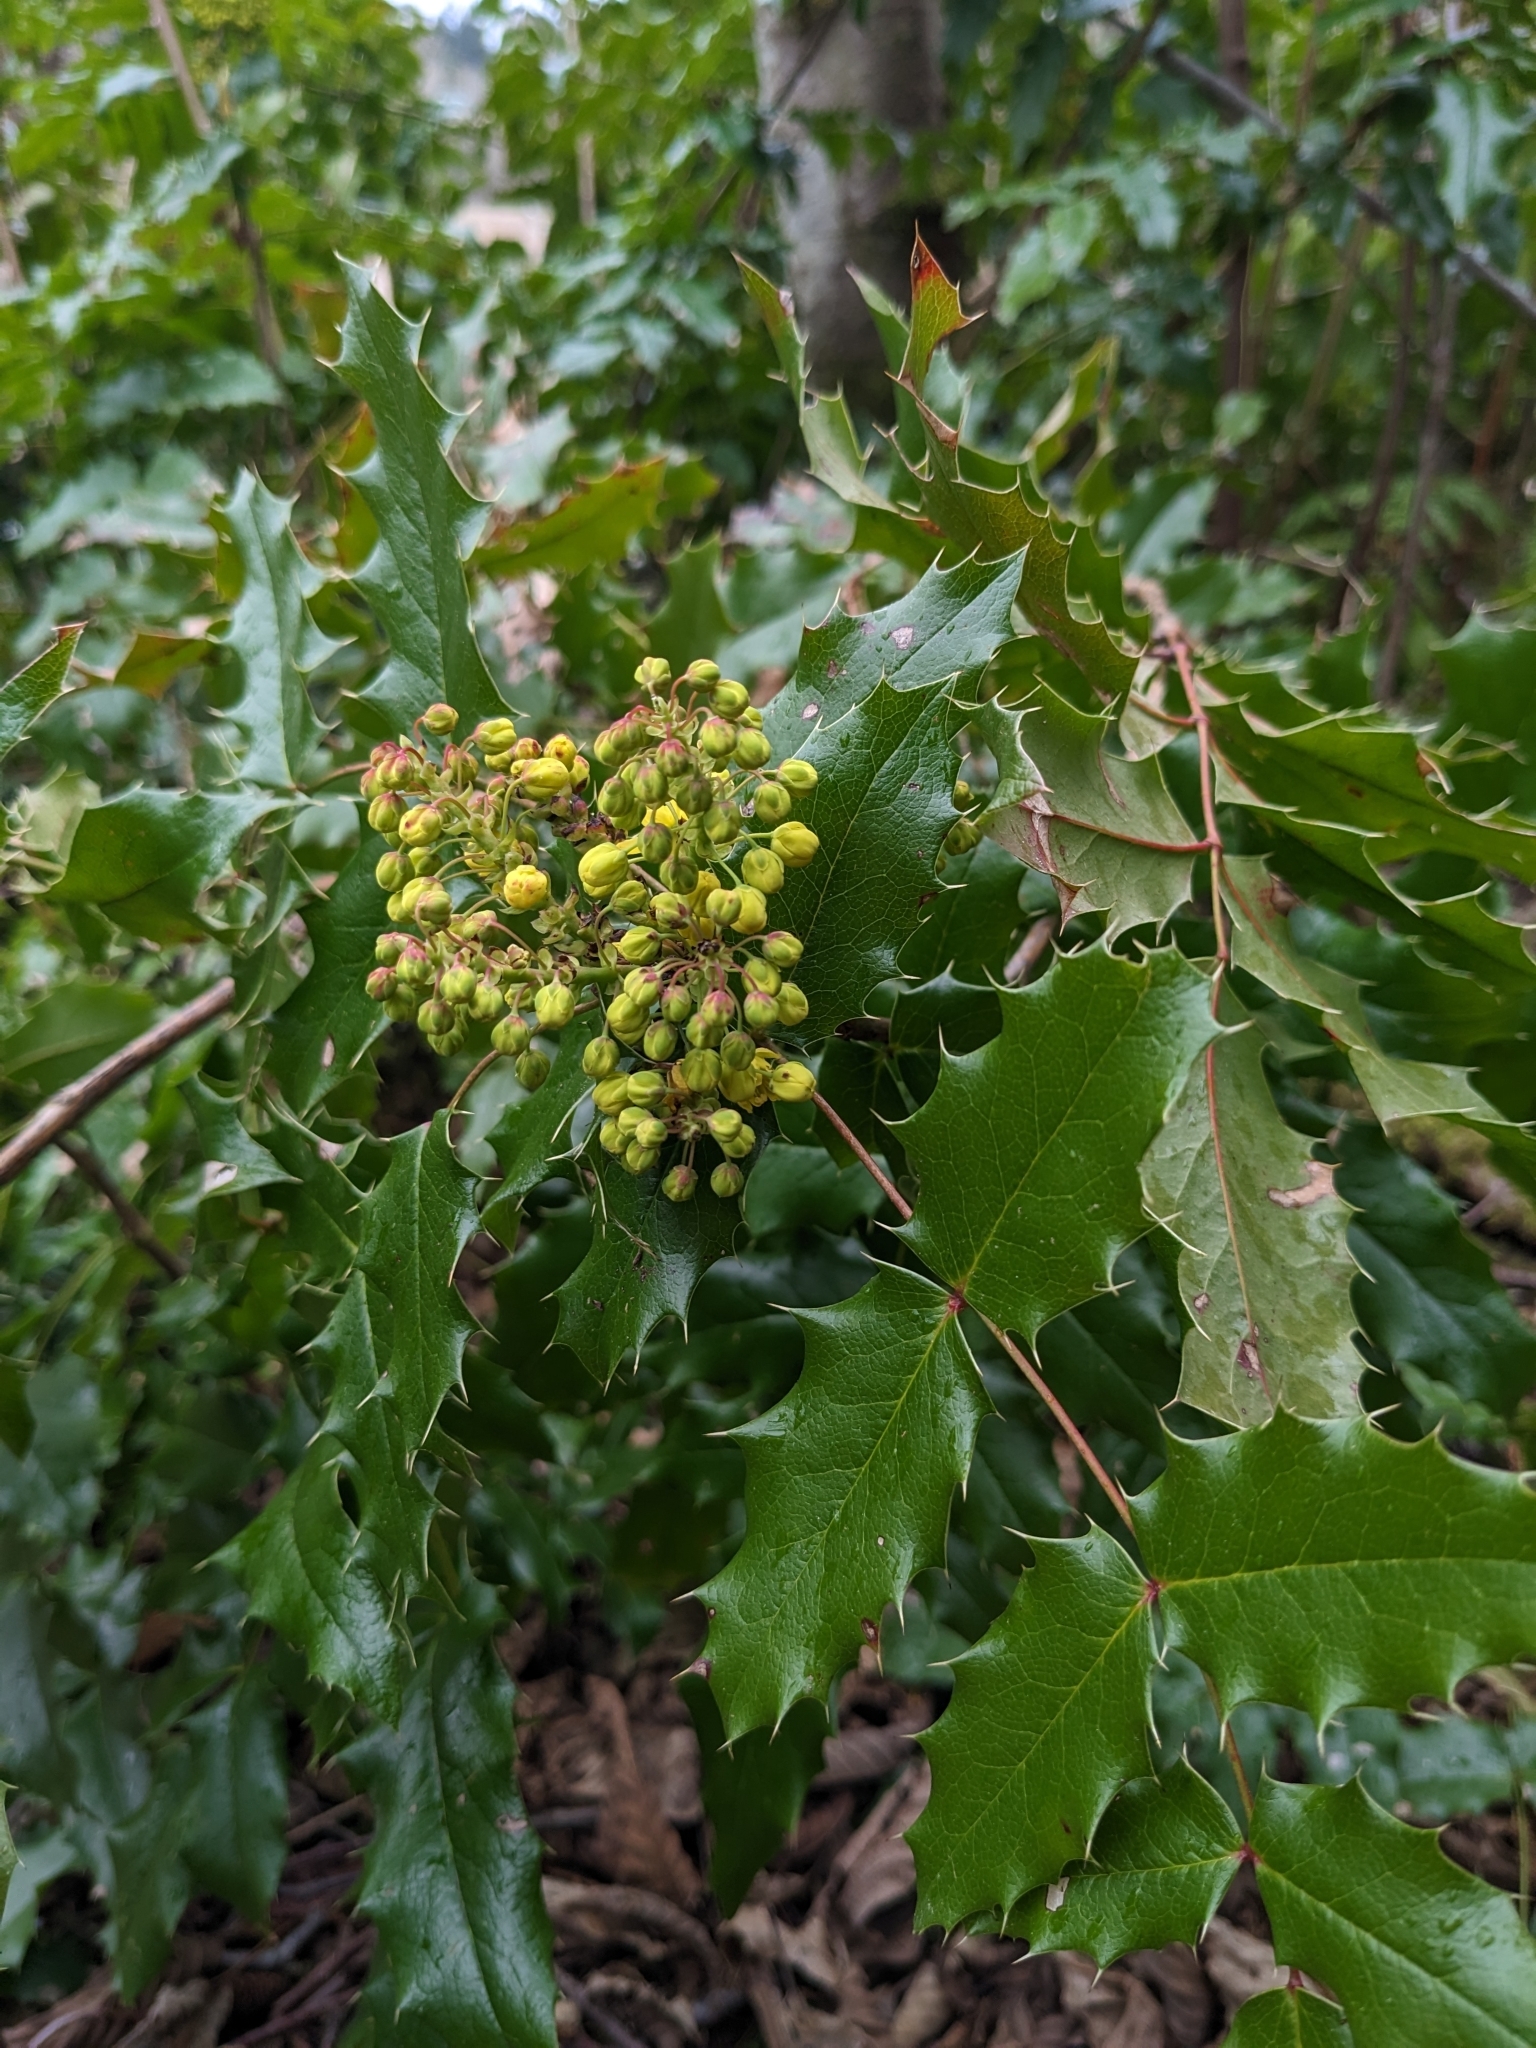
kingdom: Plantae
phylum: Tracheophyta
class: Magnoliopsida
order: Ranunculales
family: Berberidaceae
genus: Mahonia
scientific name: Mahonia aquifolium
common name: Oregon-grape
